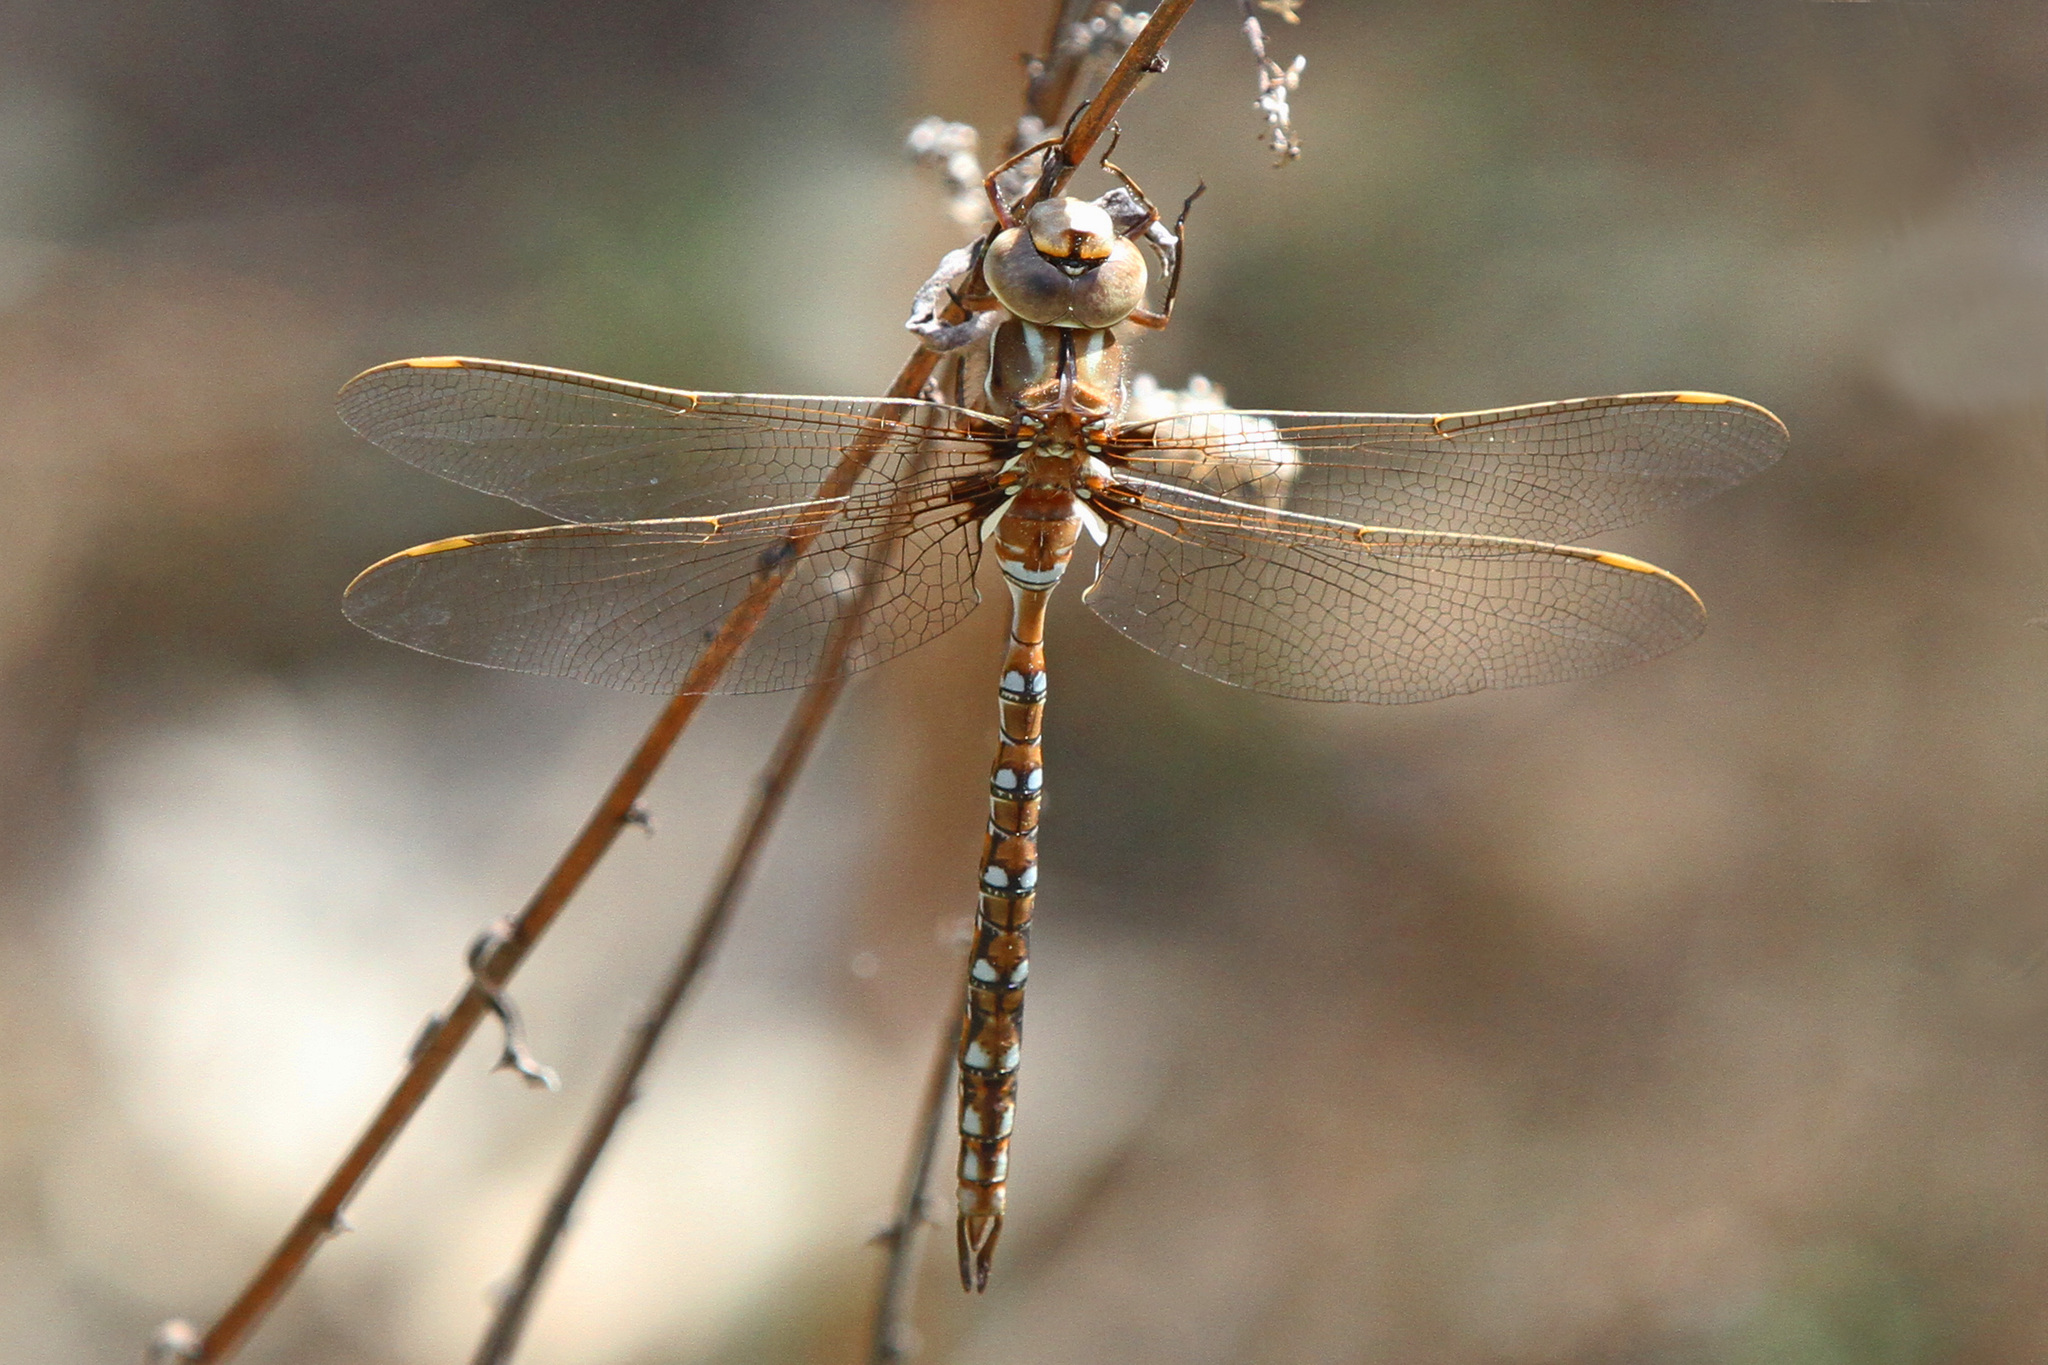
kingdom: Animalia
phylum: Arthropoda
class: Insecta
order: Odonata
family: Aeshnidae
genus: Basiaeschna
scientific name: Basiaeschna janata
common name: Springtime darner
